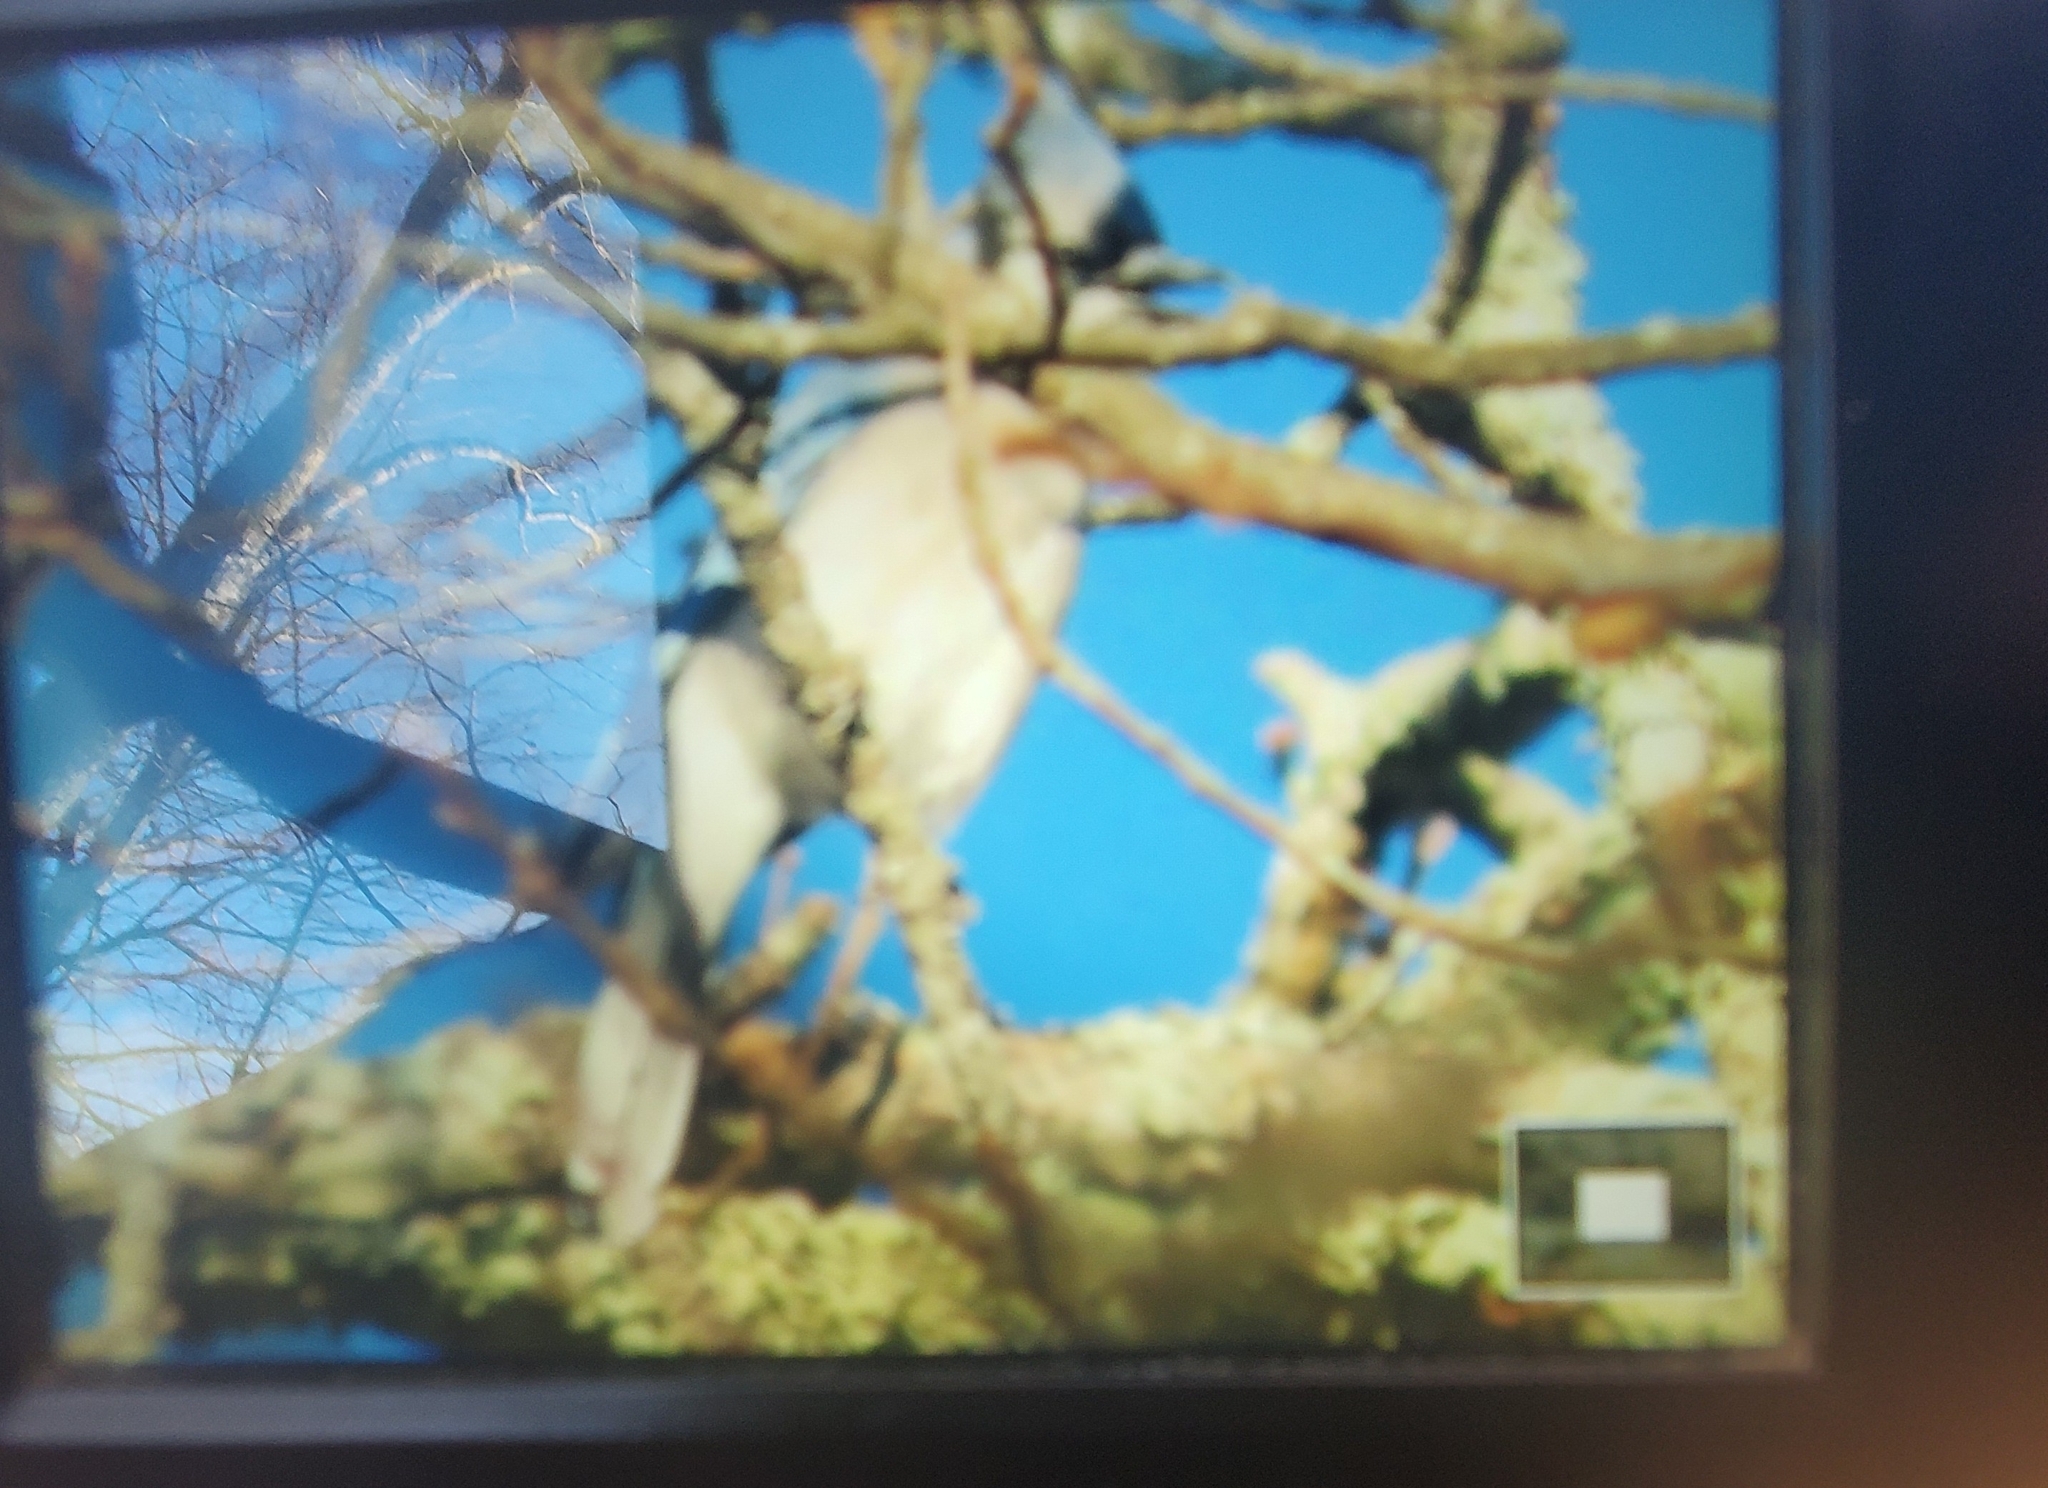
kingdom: Animalia
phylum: Chordata
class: Aves
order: Passeriformes
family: Corvidae
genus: Cyanocitta
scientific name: Cyanocitta cristata
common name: Blue jay
